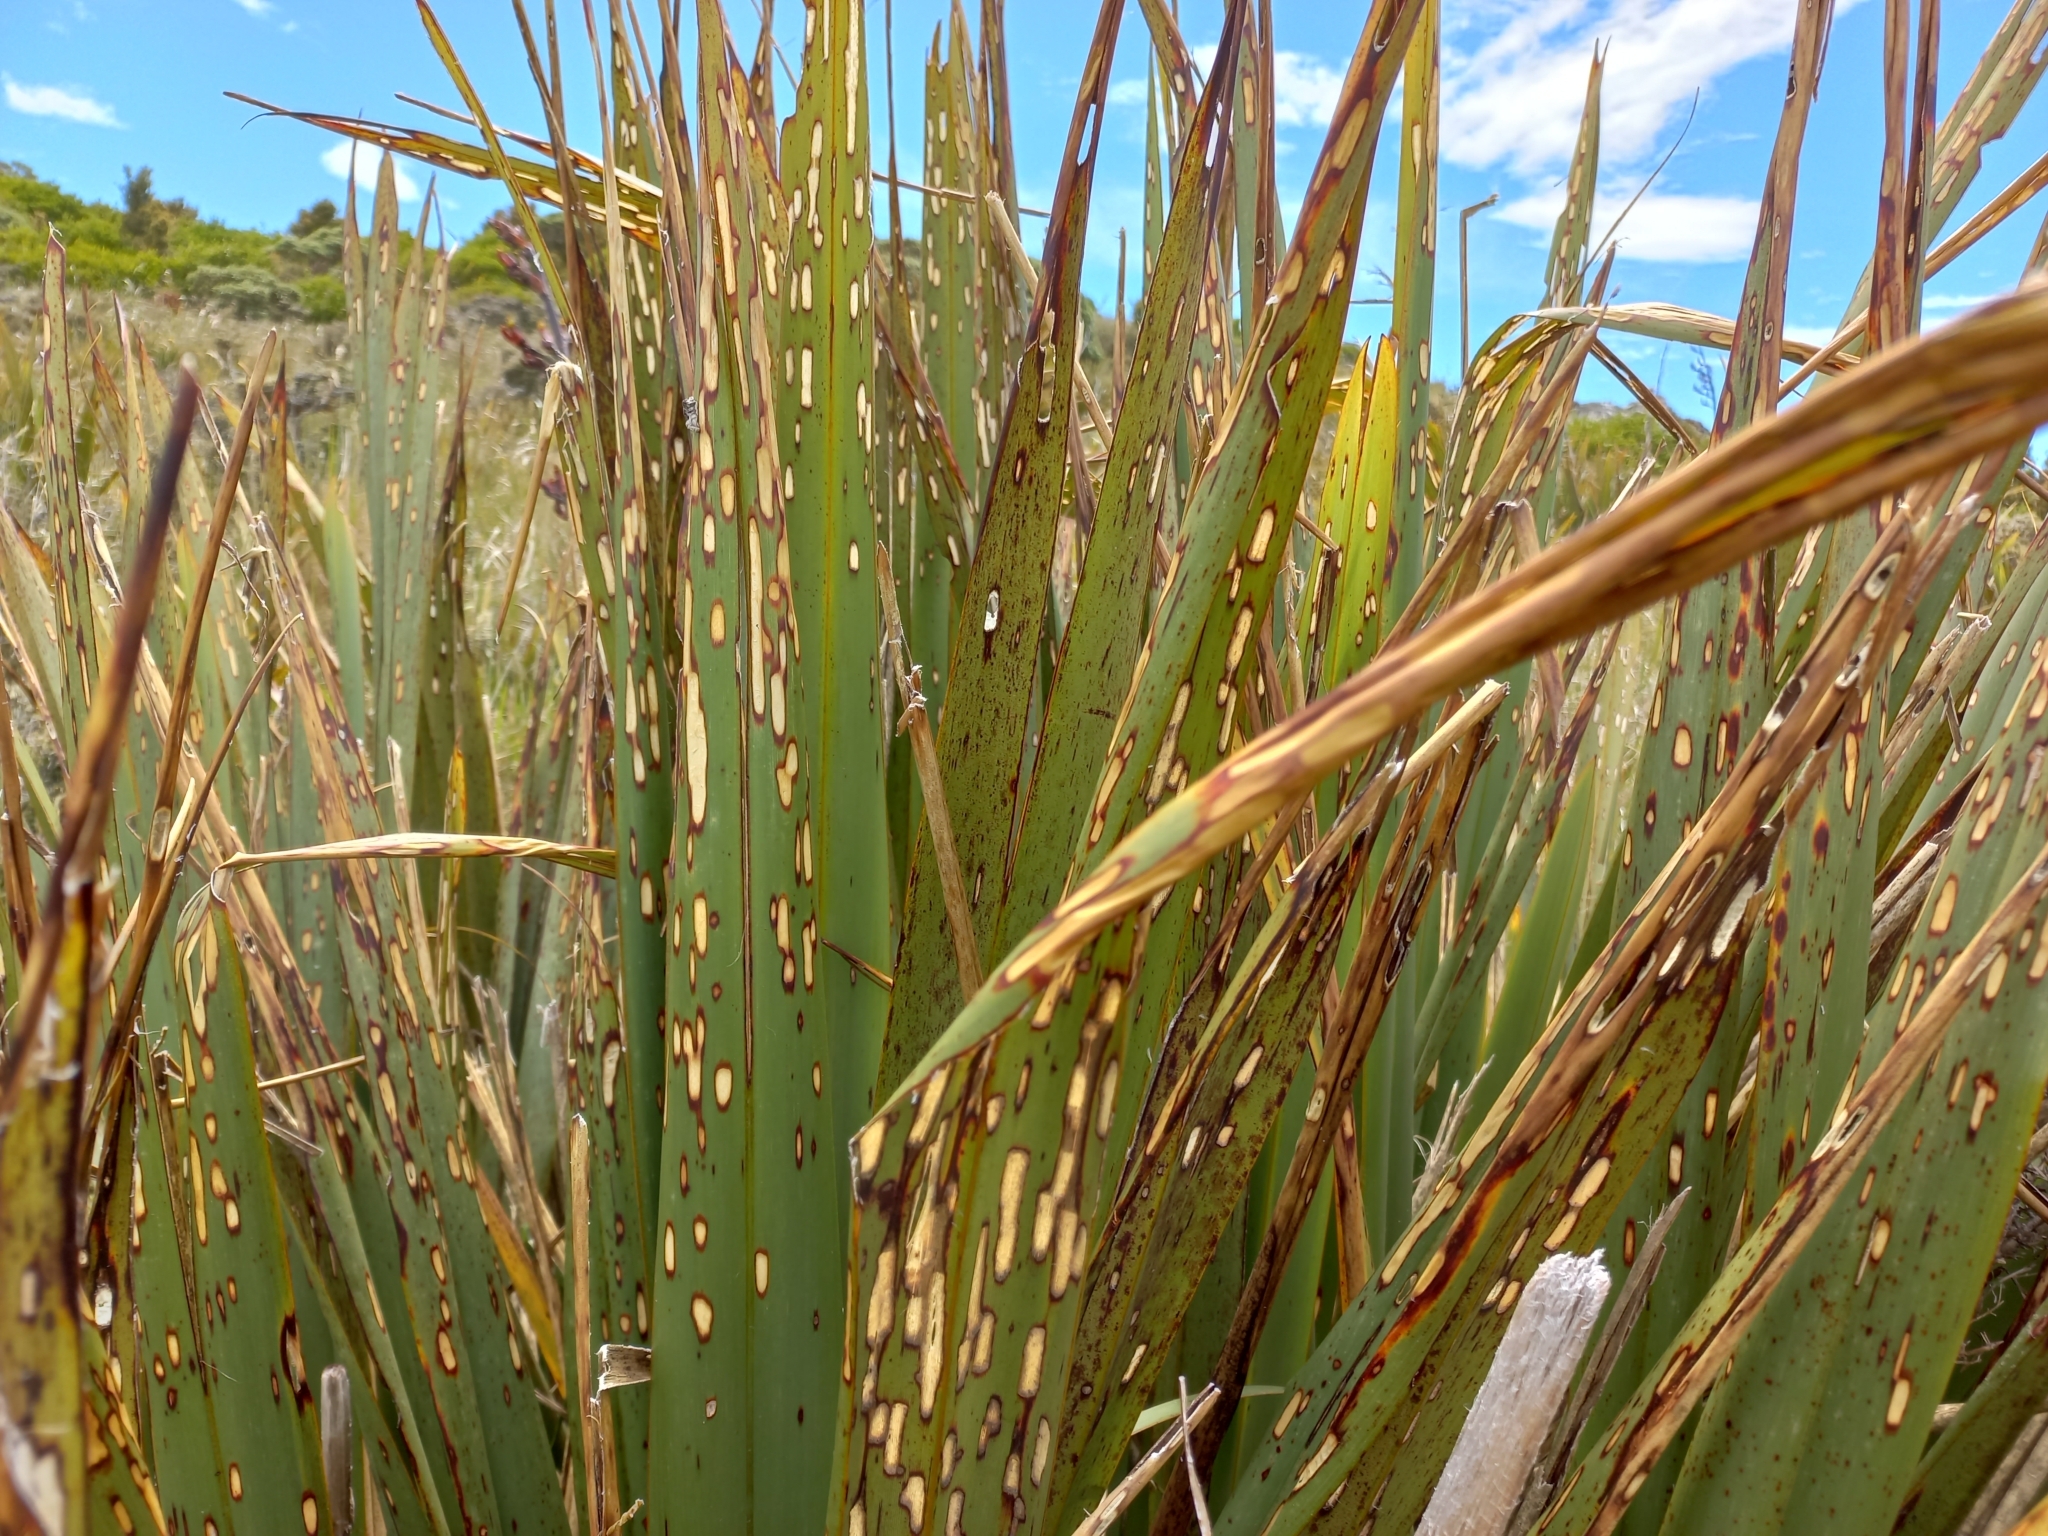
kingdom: Animalia
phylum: Arthropoda
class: Insecta
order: Lepidoptera
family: Geometridae
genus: Orthoclydon
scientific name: Orthoclydon praefectata
